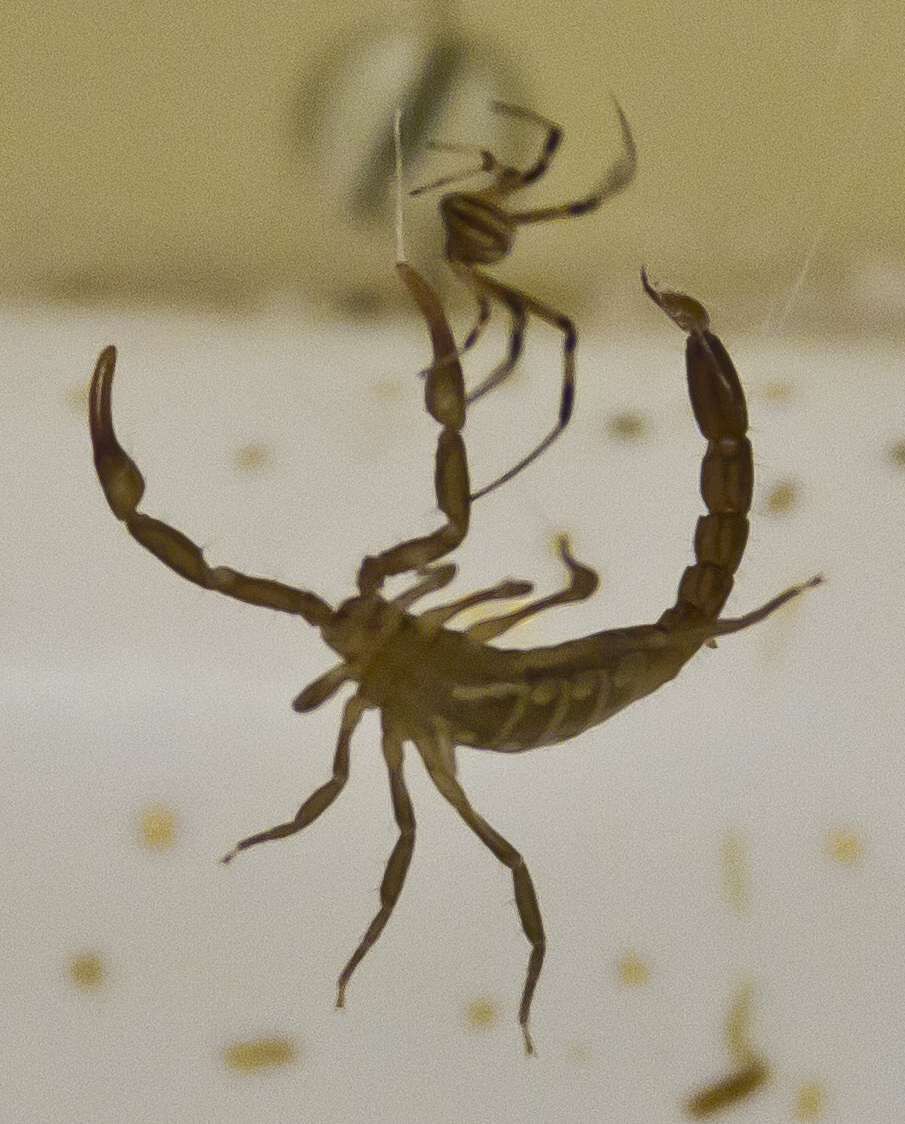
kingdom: Animalia
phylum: Arthropoda
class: Arachnida
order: Scorpiones
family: Vaejovidae
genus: Serradigitus
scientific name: Serradigitus gertschi
